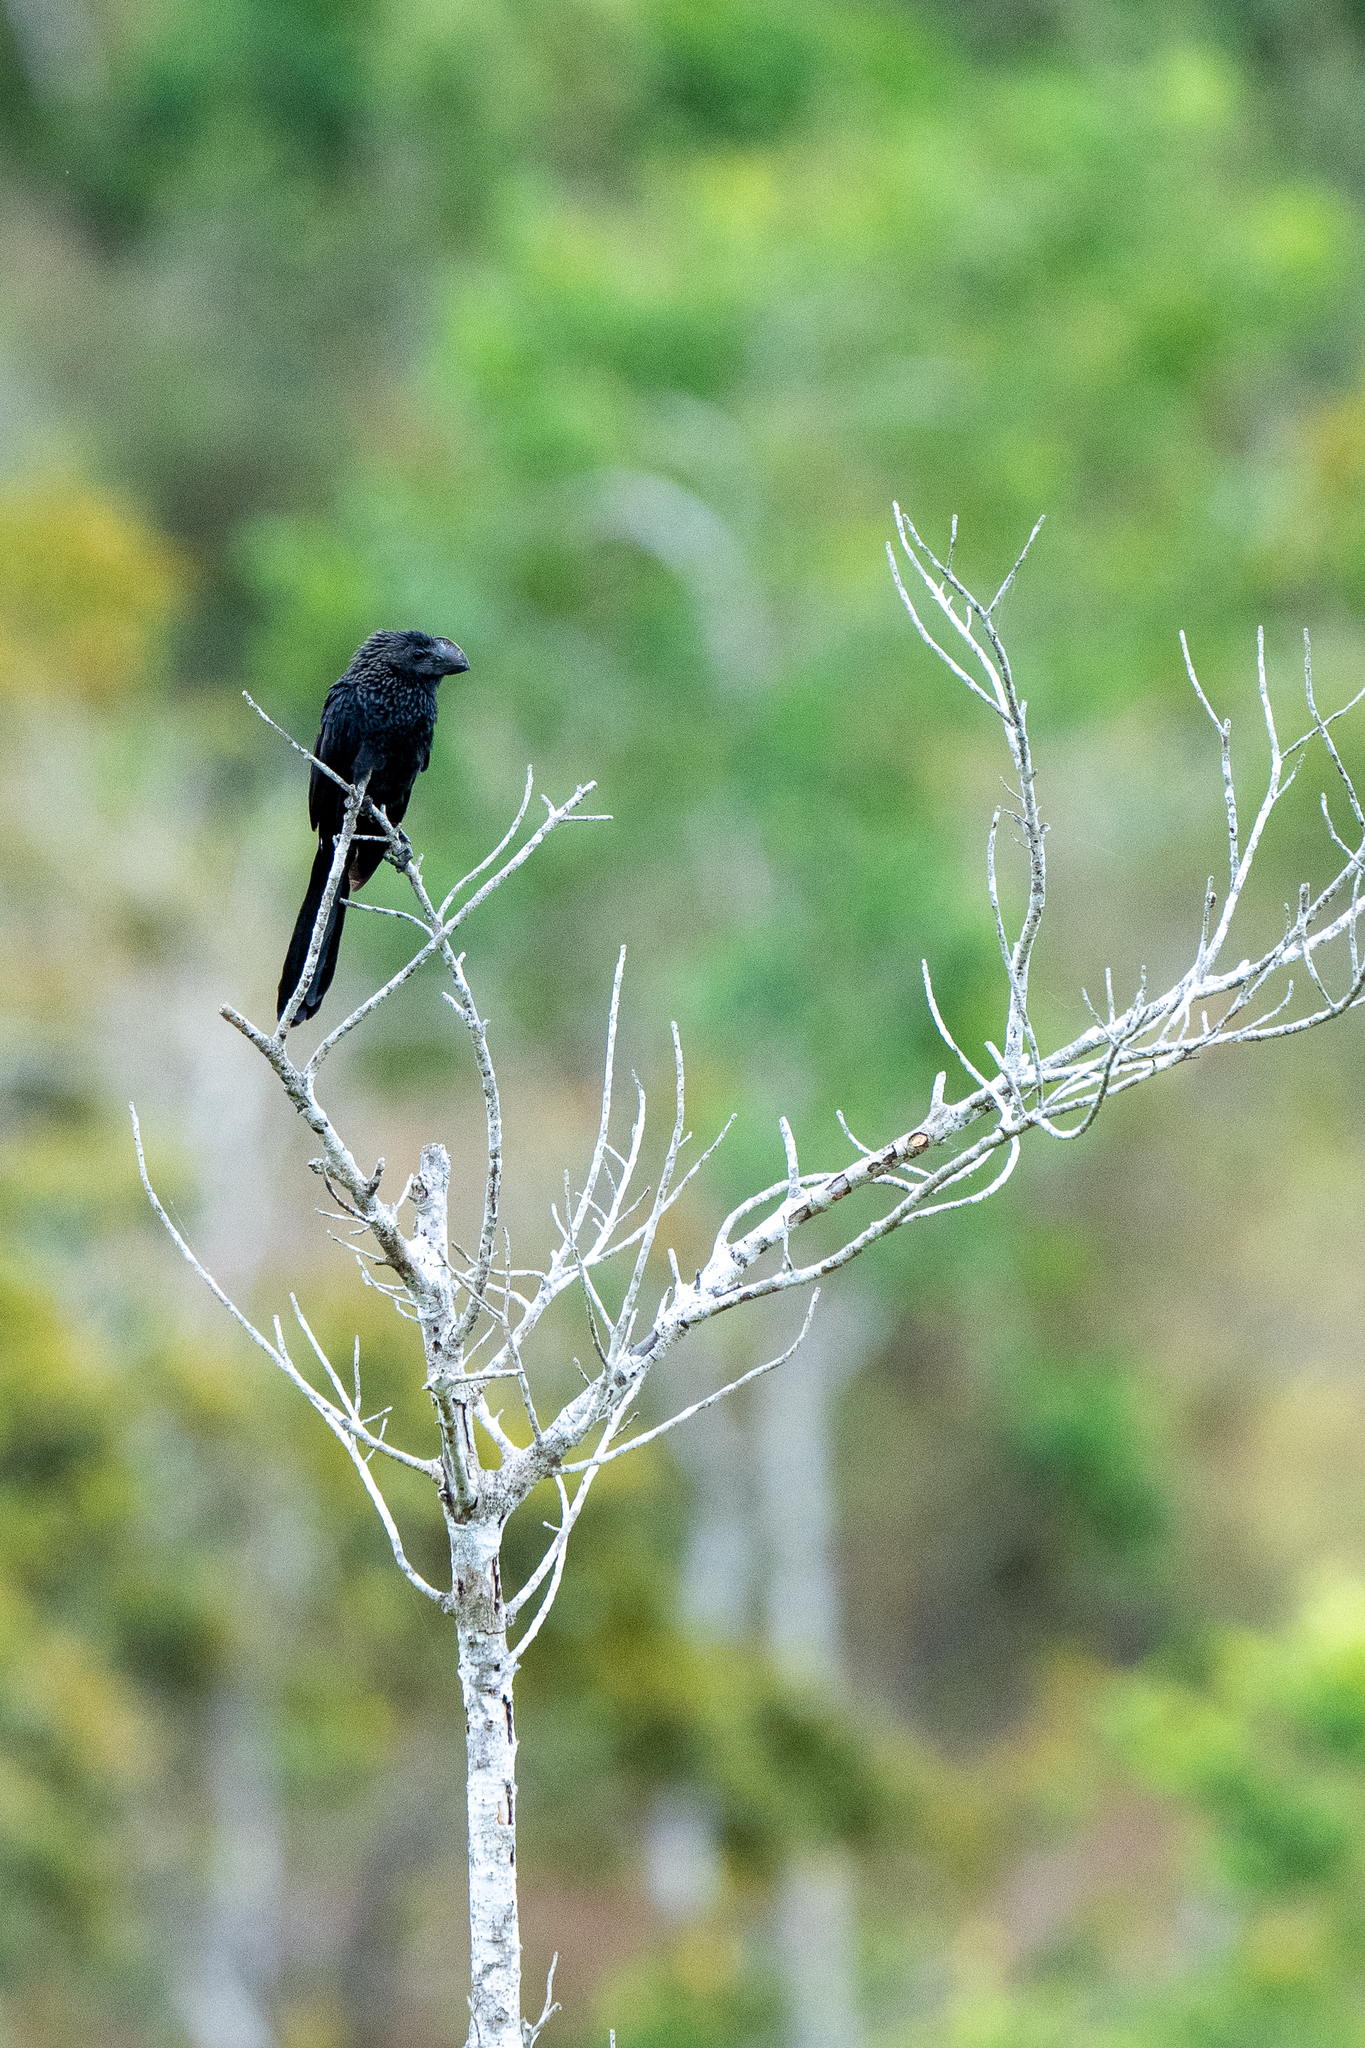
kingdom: Animalia
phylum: Chordata
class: Aves
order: Cuculiformes
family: Cuculidae
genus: Crotophaga
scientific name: Crotophaga ani
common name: Smooth-billed ani
